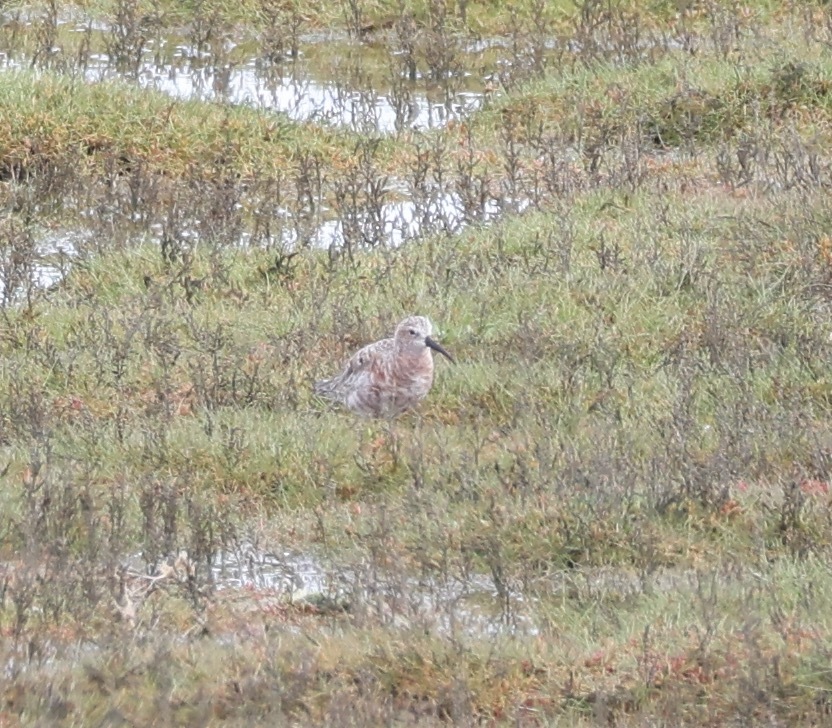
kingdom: Animalia
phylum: Chordata
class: Aves
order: Charadriiformes
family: Scolopacidae
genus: Calidris
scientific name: Calidris ferruginea
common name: Curlew sandpiper
